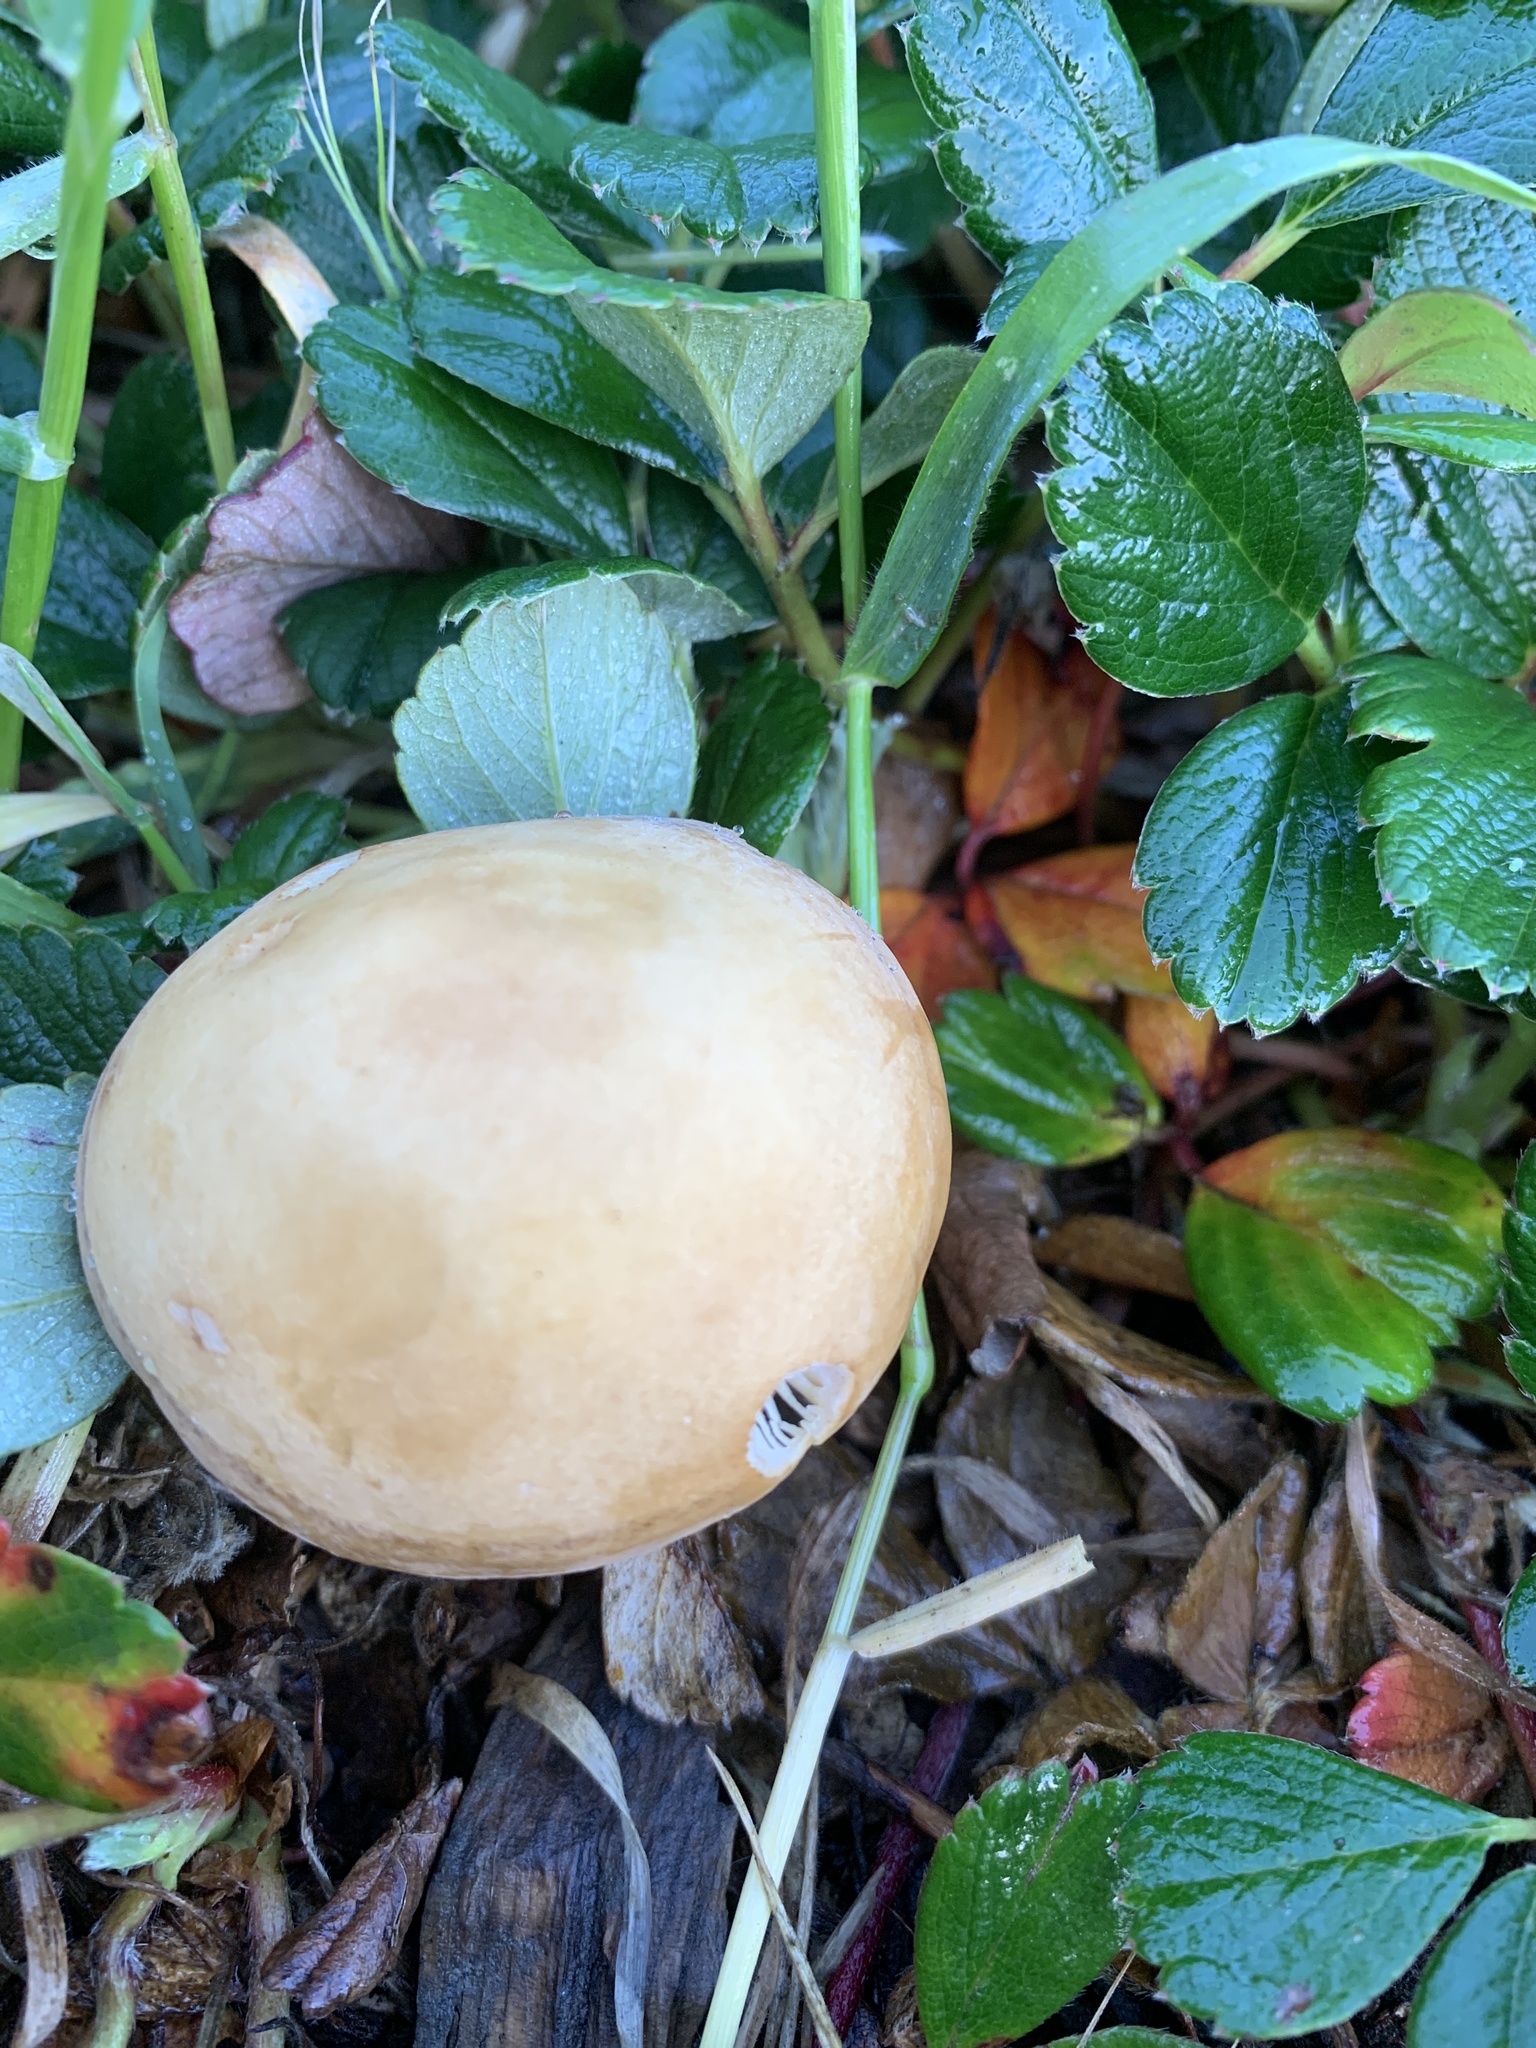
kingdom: Fungi
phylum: Basidiomycota
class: Agaricomycetes
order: Agaricales
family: Strophariaceae
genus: Agrocybe
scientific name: Agrocybe putaminum
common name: Mulch fieldcap
